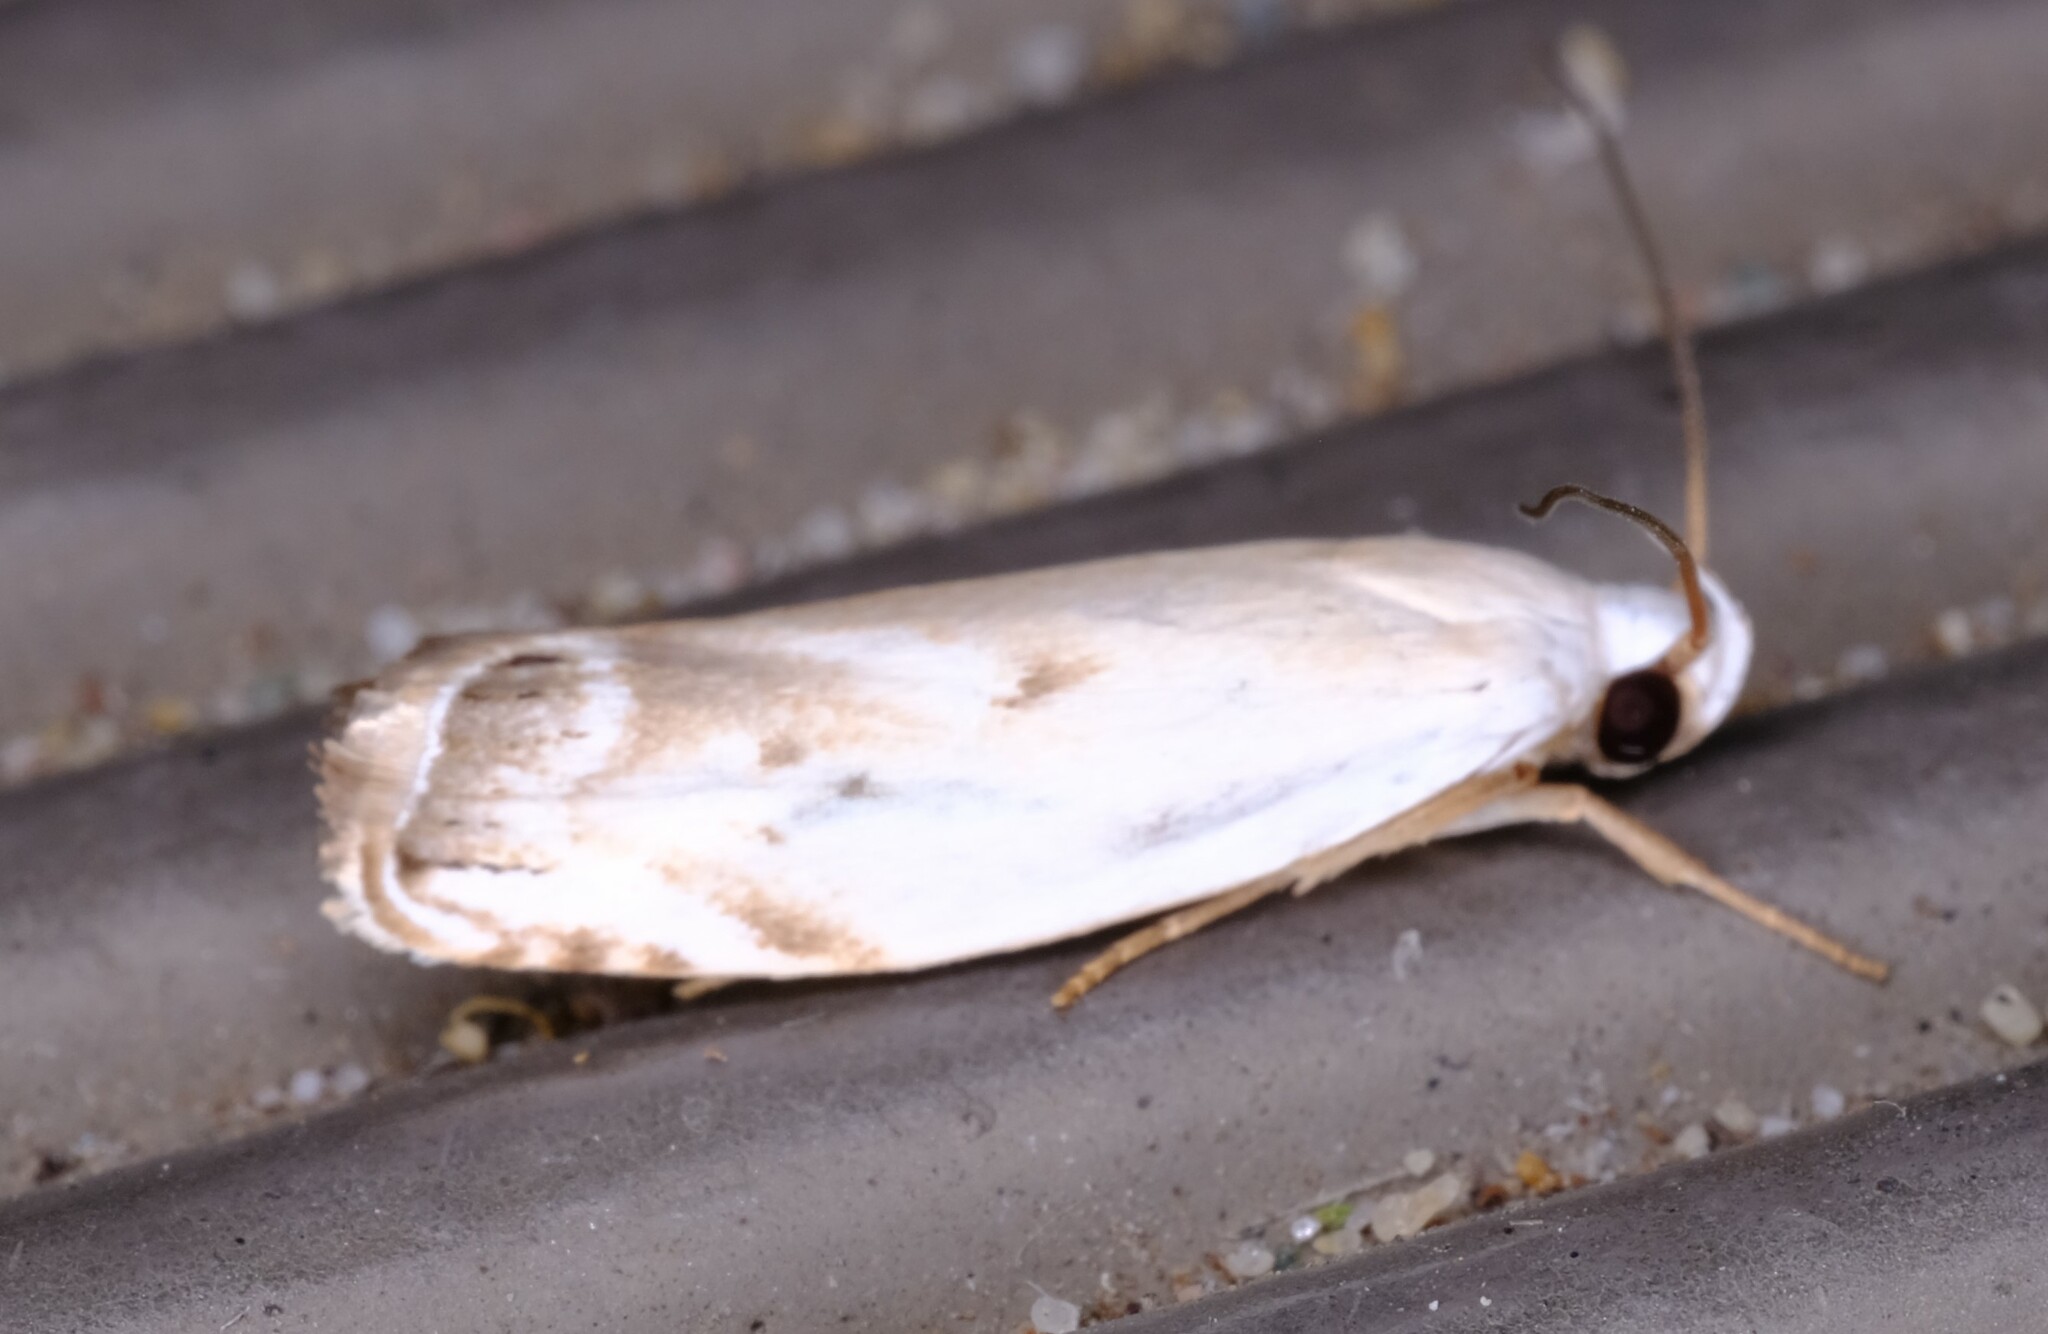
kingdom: Animalia
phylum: Arthropoda
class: Insecta
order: Lepidoptera
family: Xyloryctidae
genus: Plectophila
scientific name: Plectophila discalis
